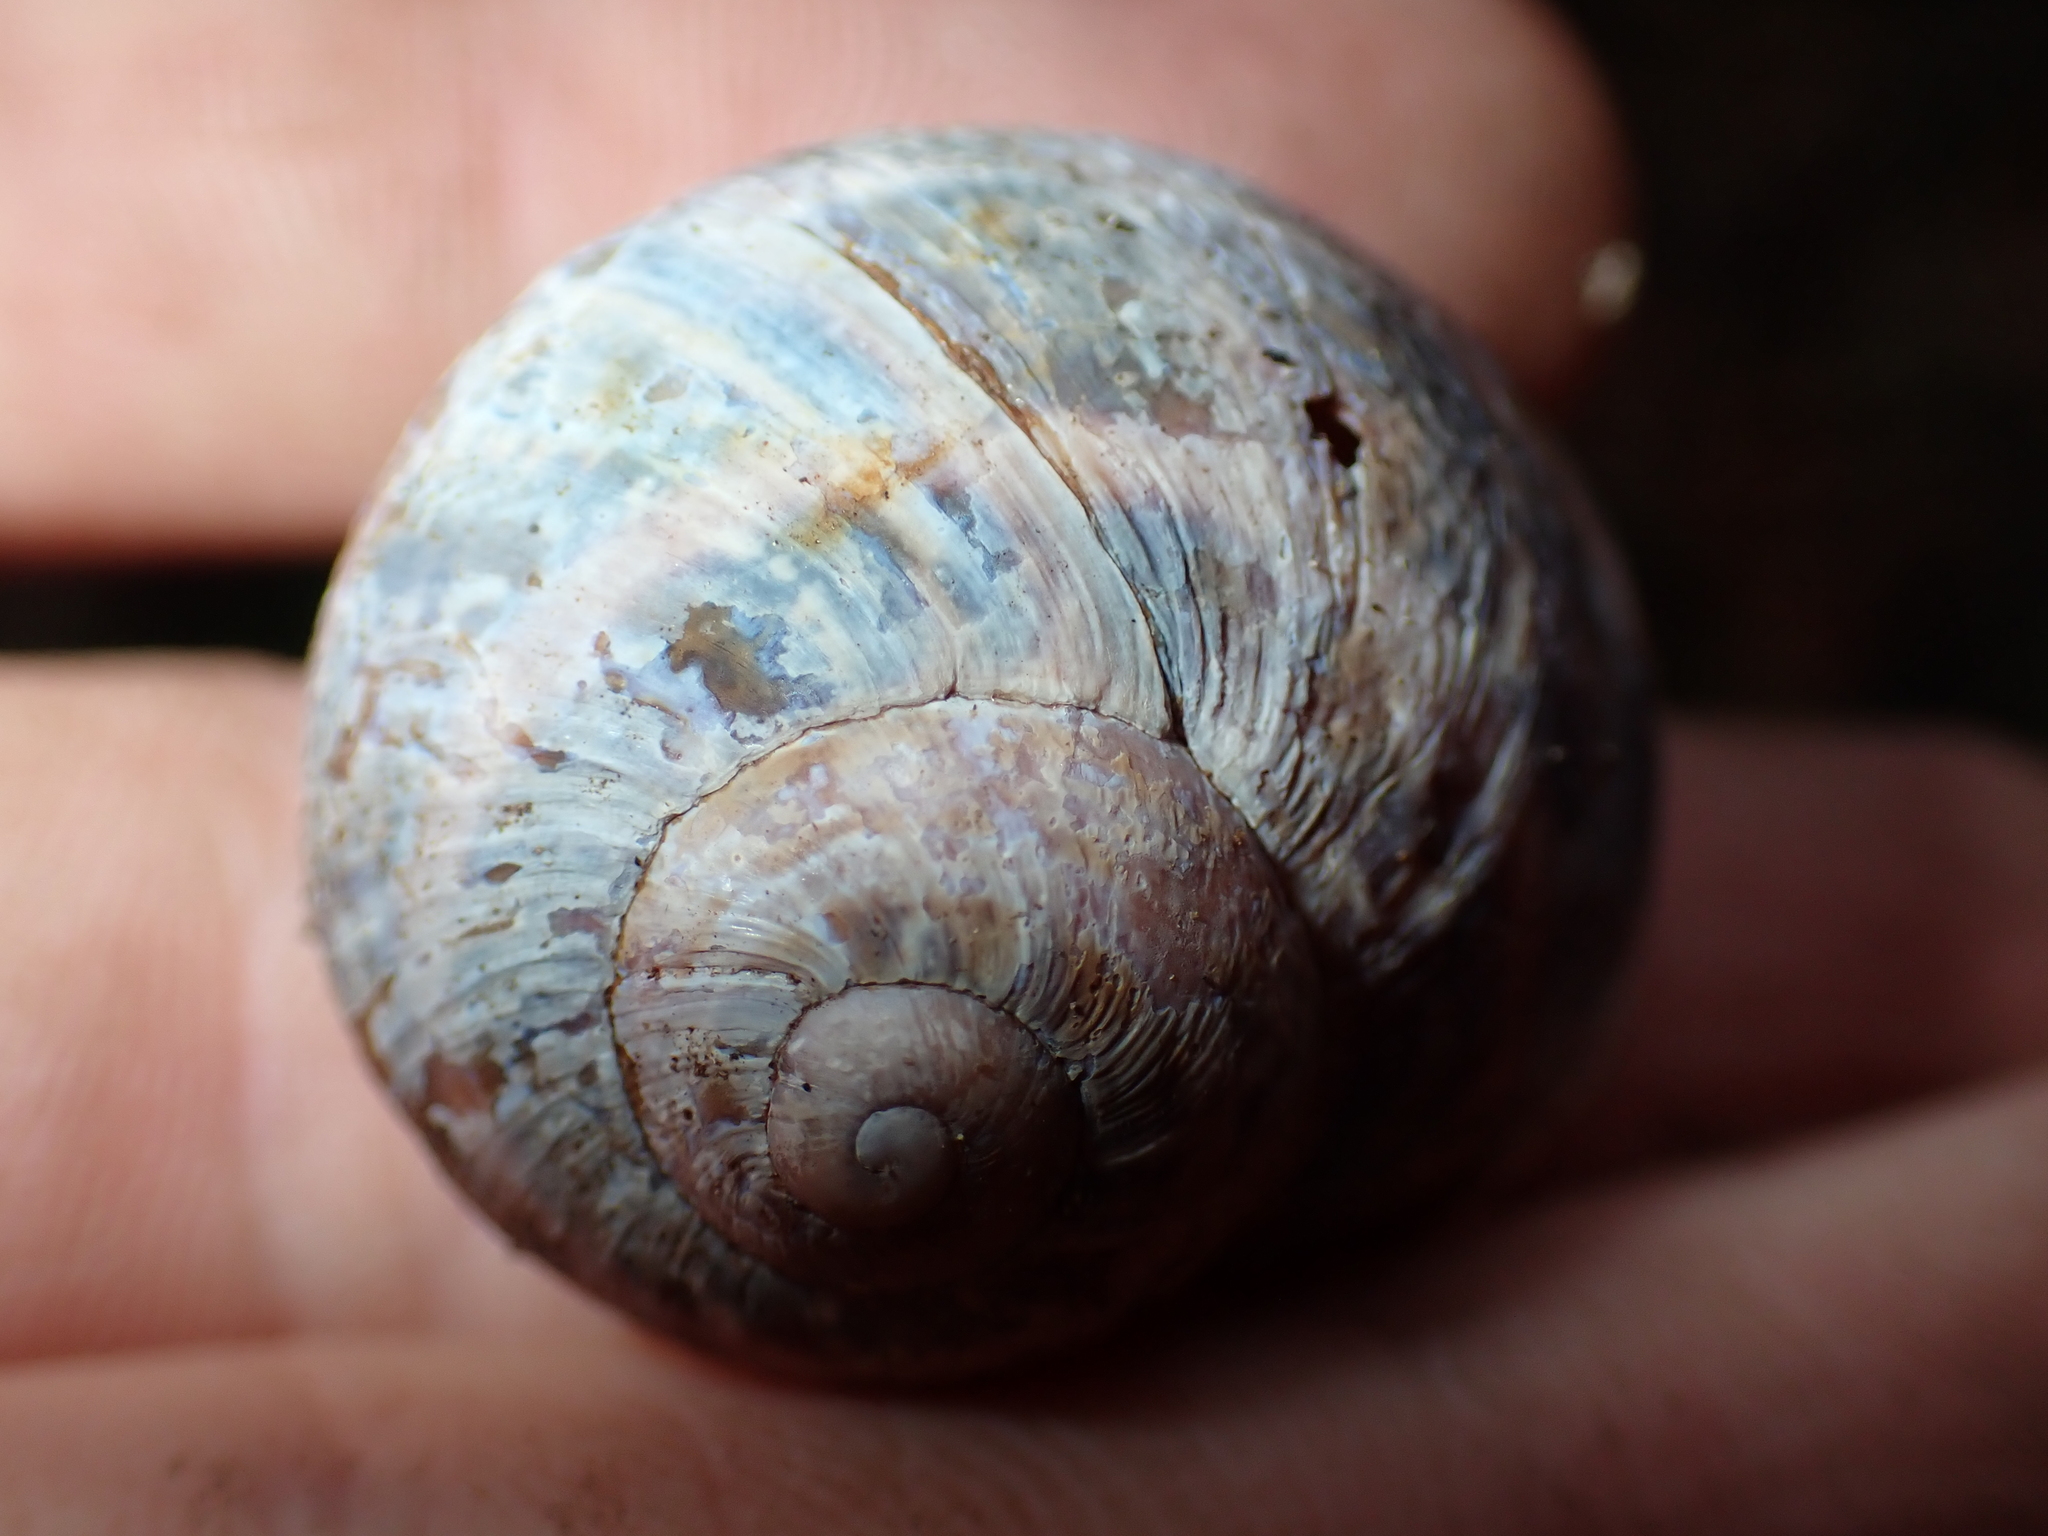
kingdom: Animalia
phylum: Mollusca
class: Gastropoda
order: Stylommatophora
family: Helicidae
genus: Cornu
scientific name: Cornu aspersum
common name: Brown garden snail
